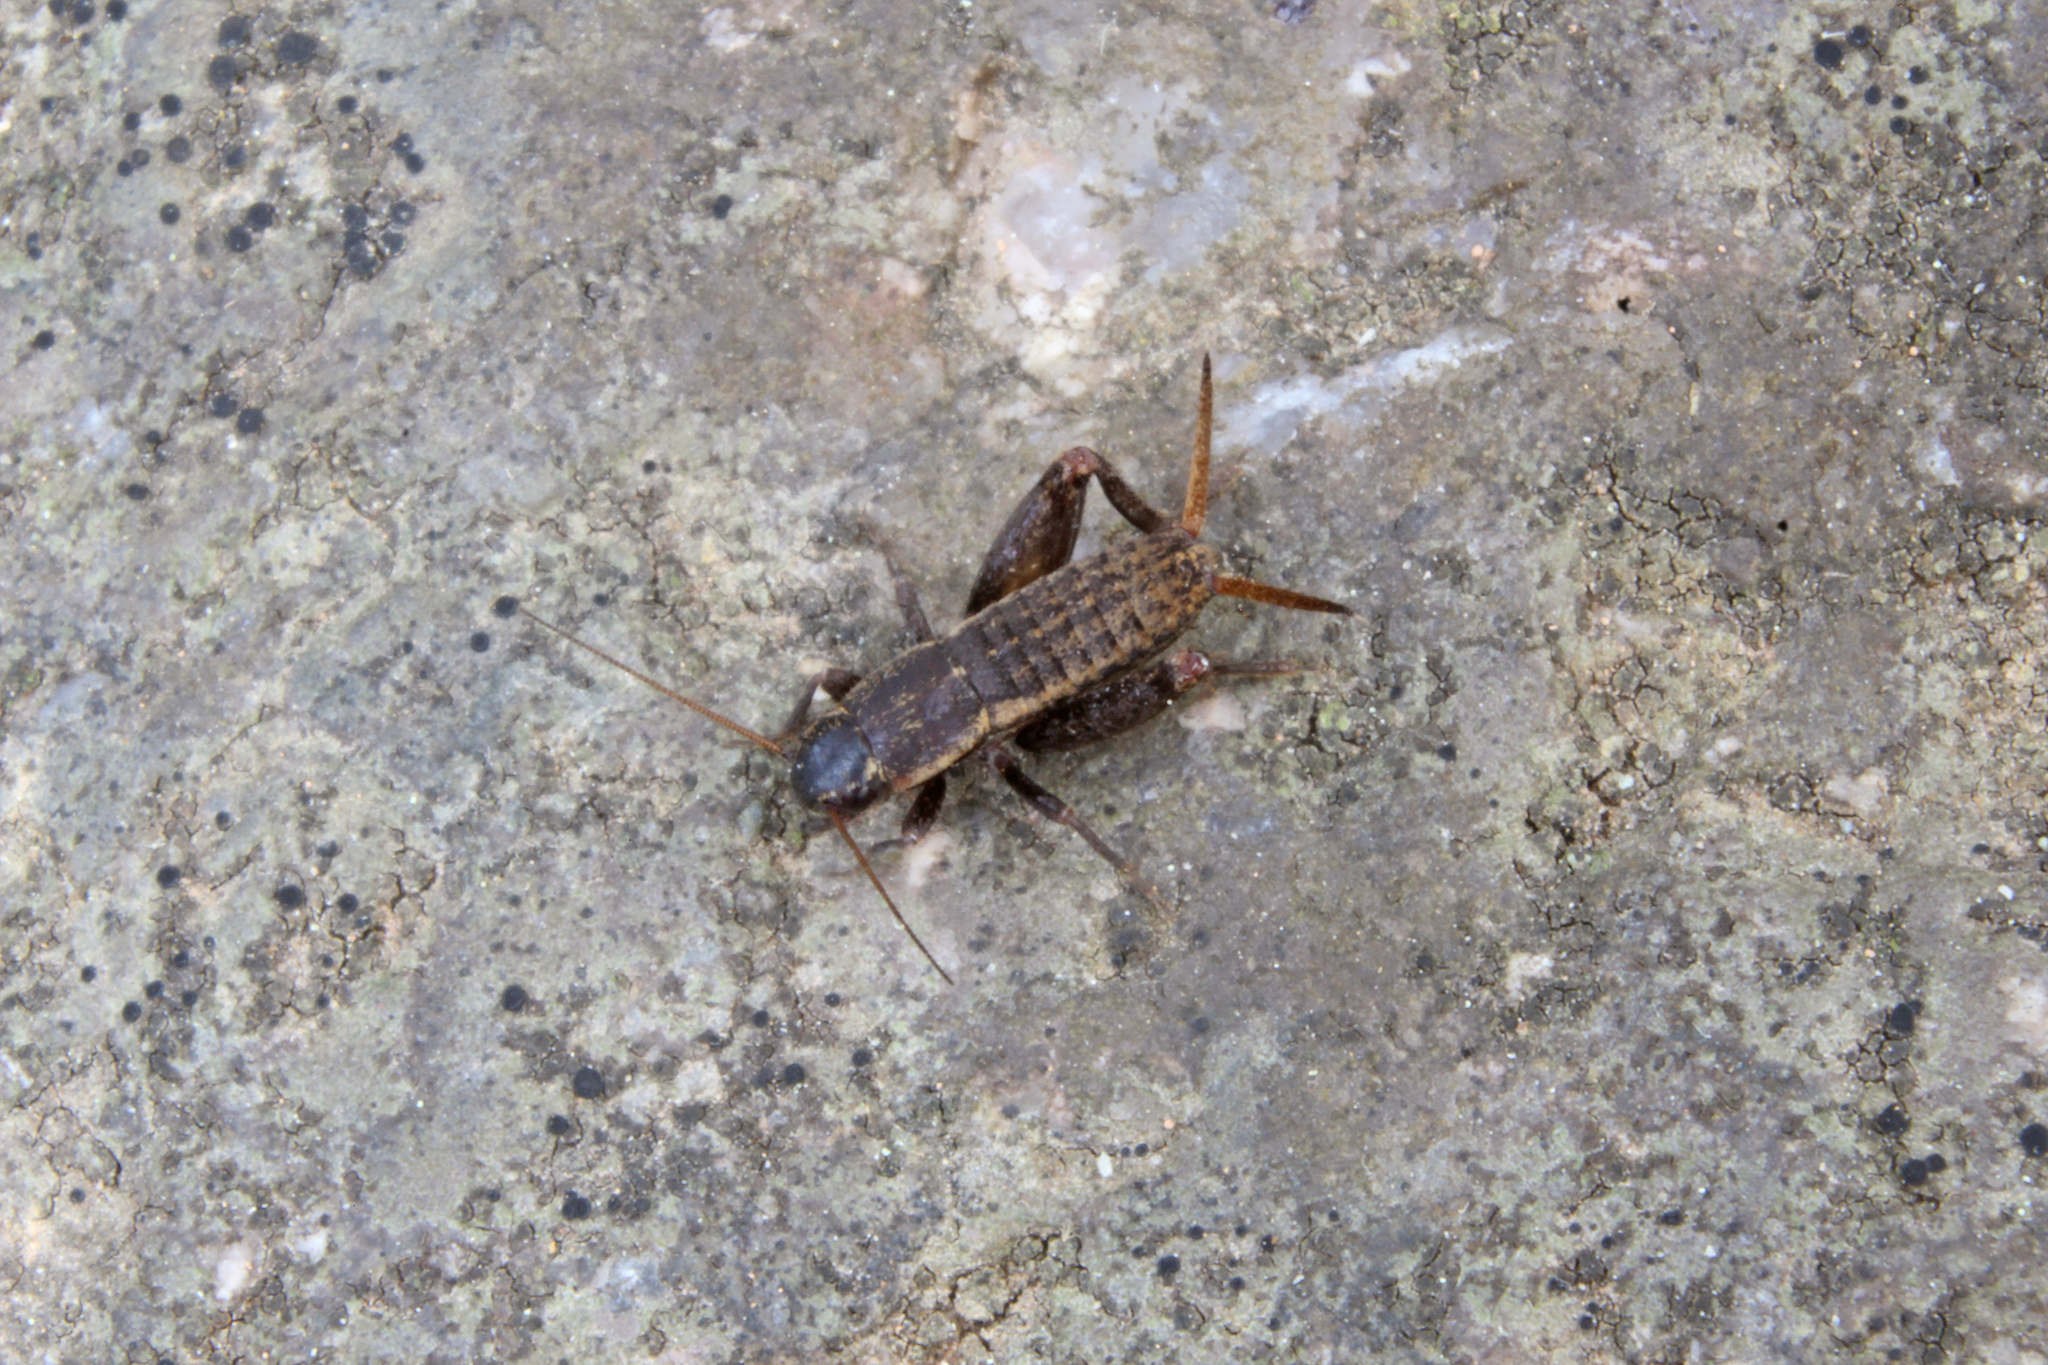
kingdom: Animalia
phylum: Arthropoda
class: Insecta
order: Orthoptera
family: Mogoplistidae
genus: Mogoplistes
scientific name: Mogoplistes brunneus
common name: Brown scale-cricket
